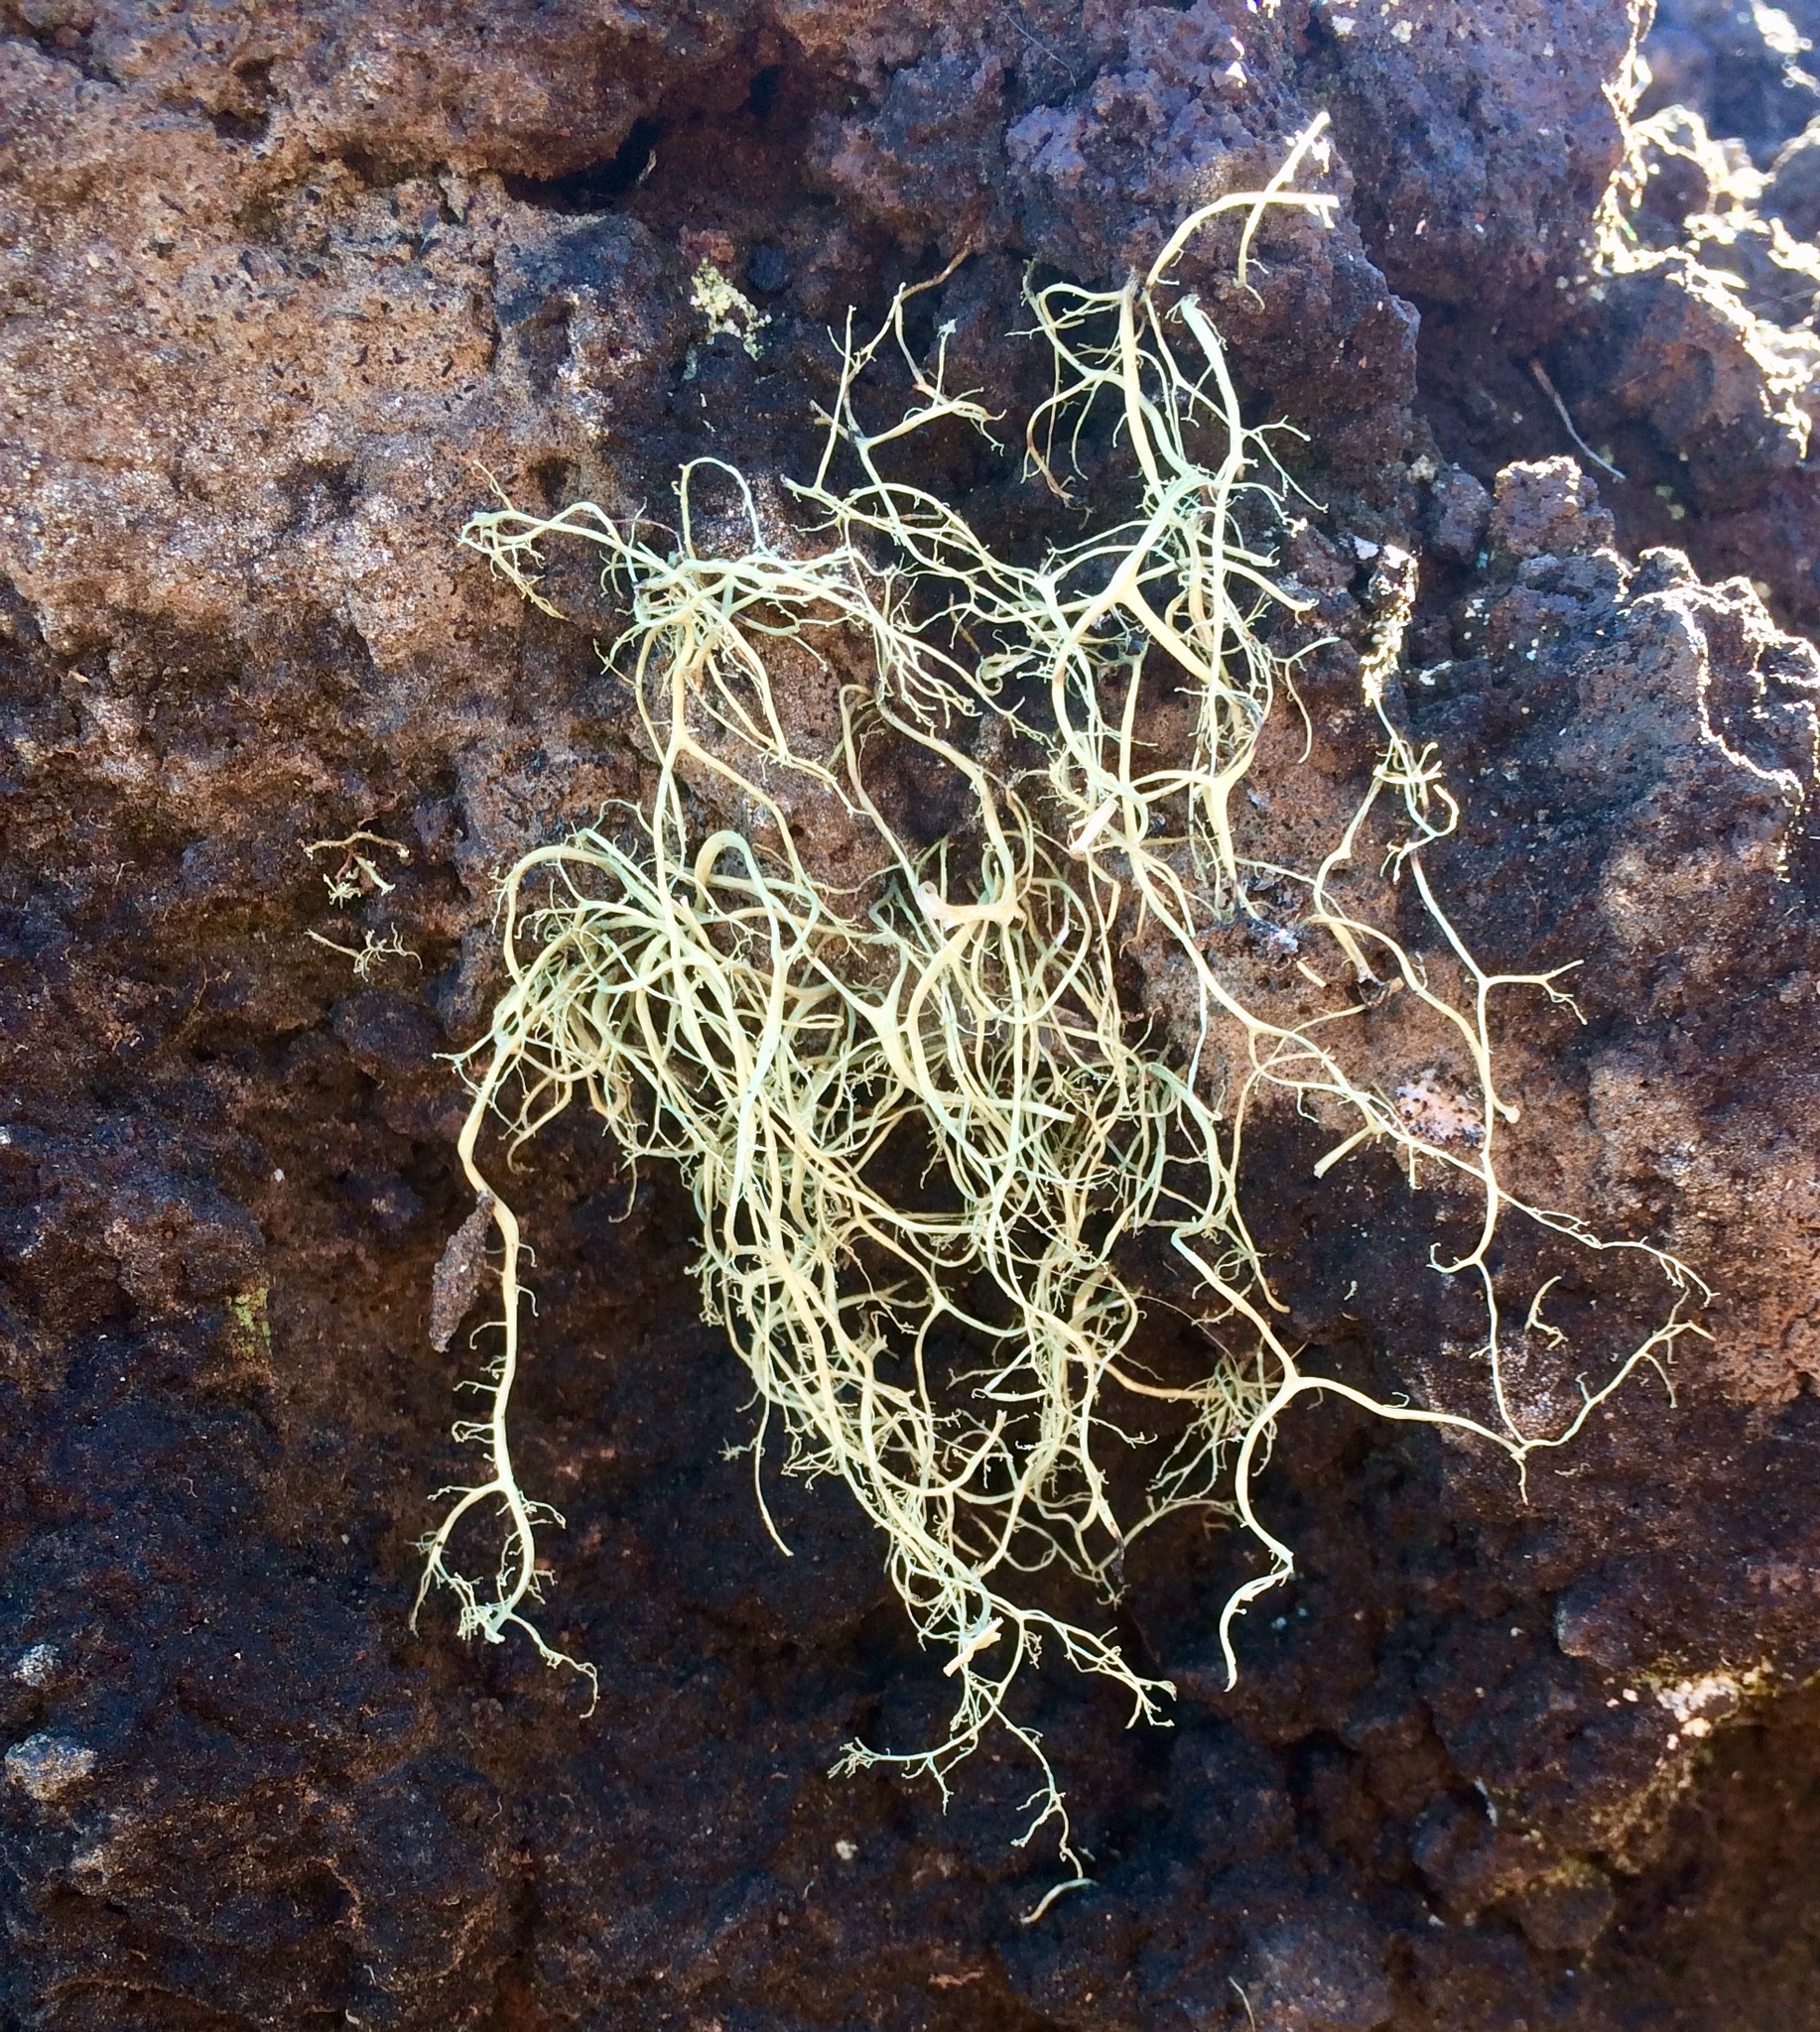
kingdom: Fungi
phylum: Ascomycota
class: Lecanoromycetes
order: Lecanorales
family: Ramalinaceae
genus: Ramalina
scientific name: Ramalina australiensis
